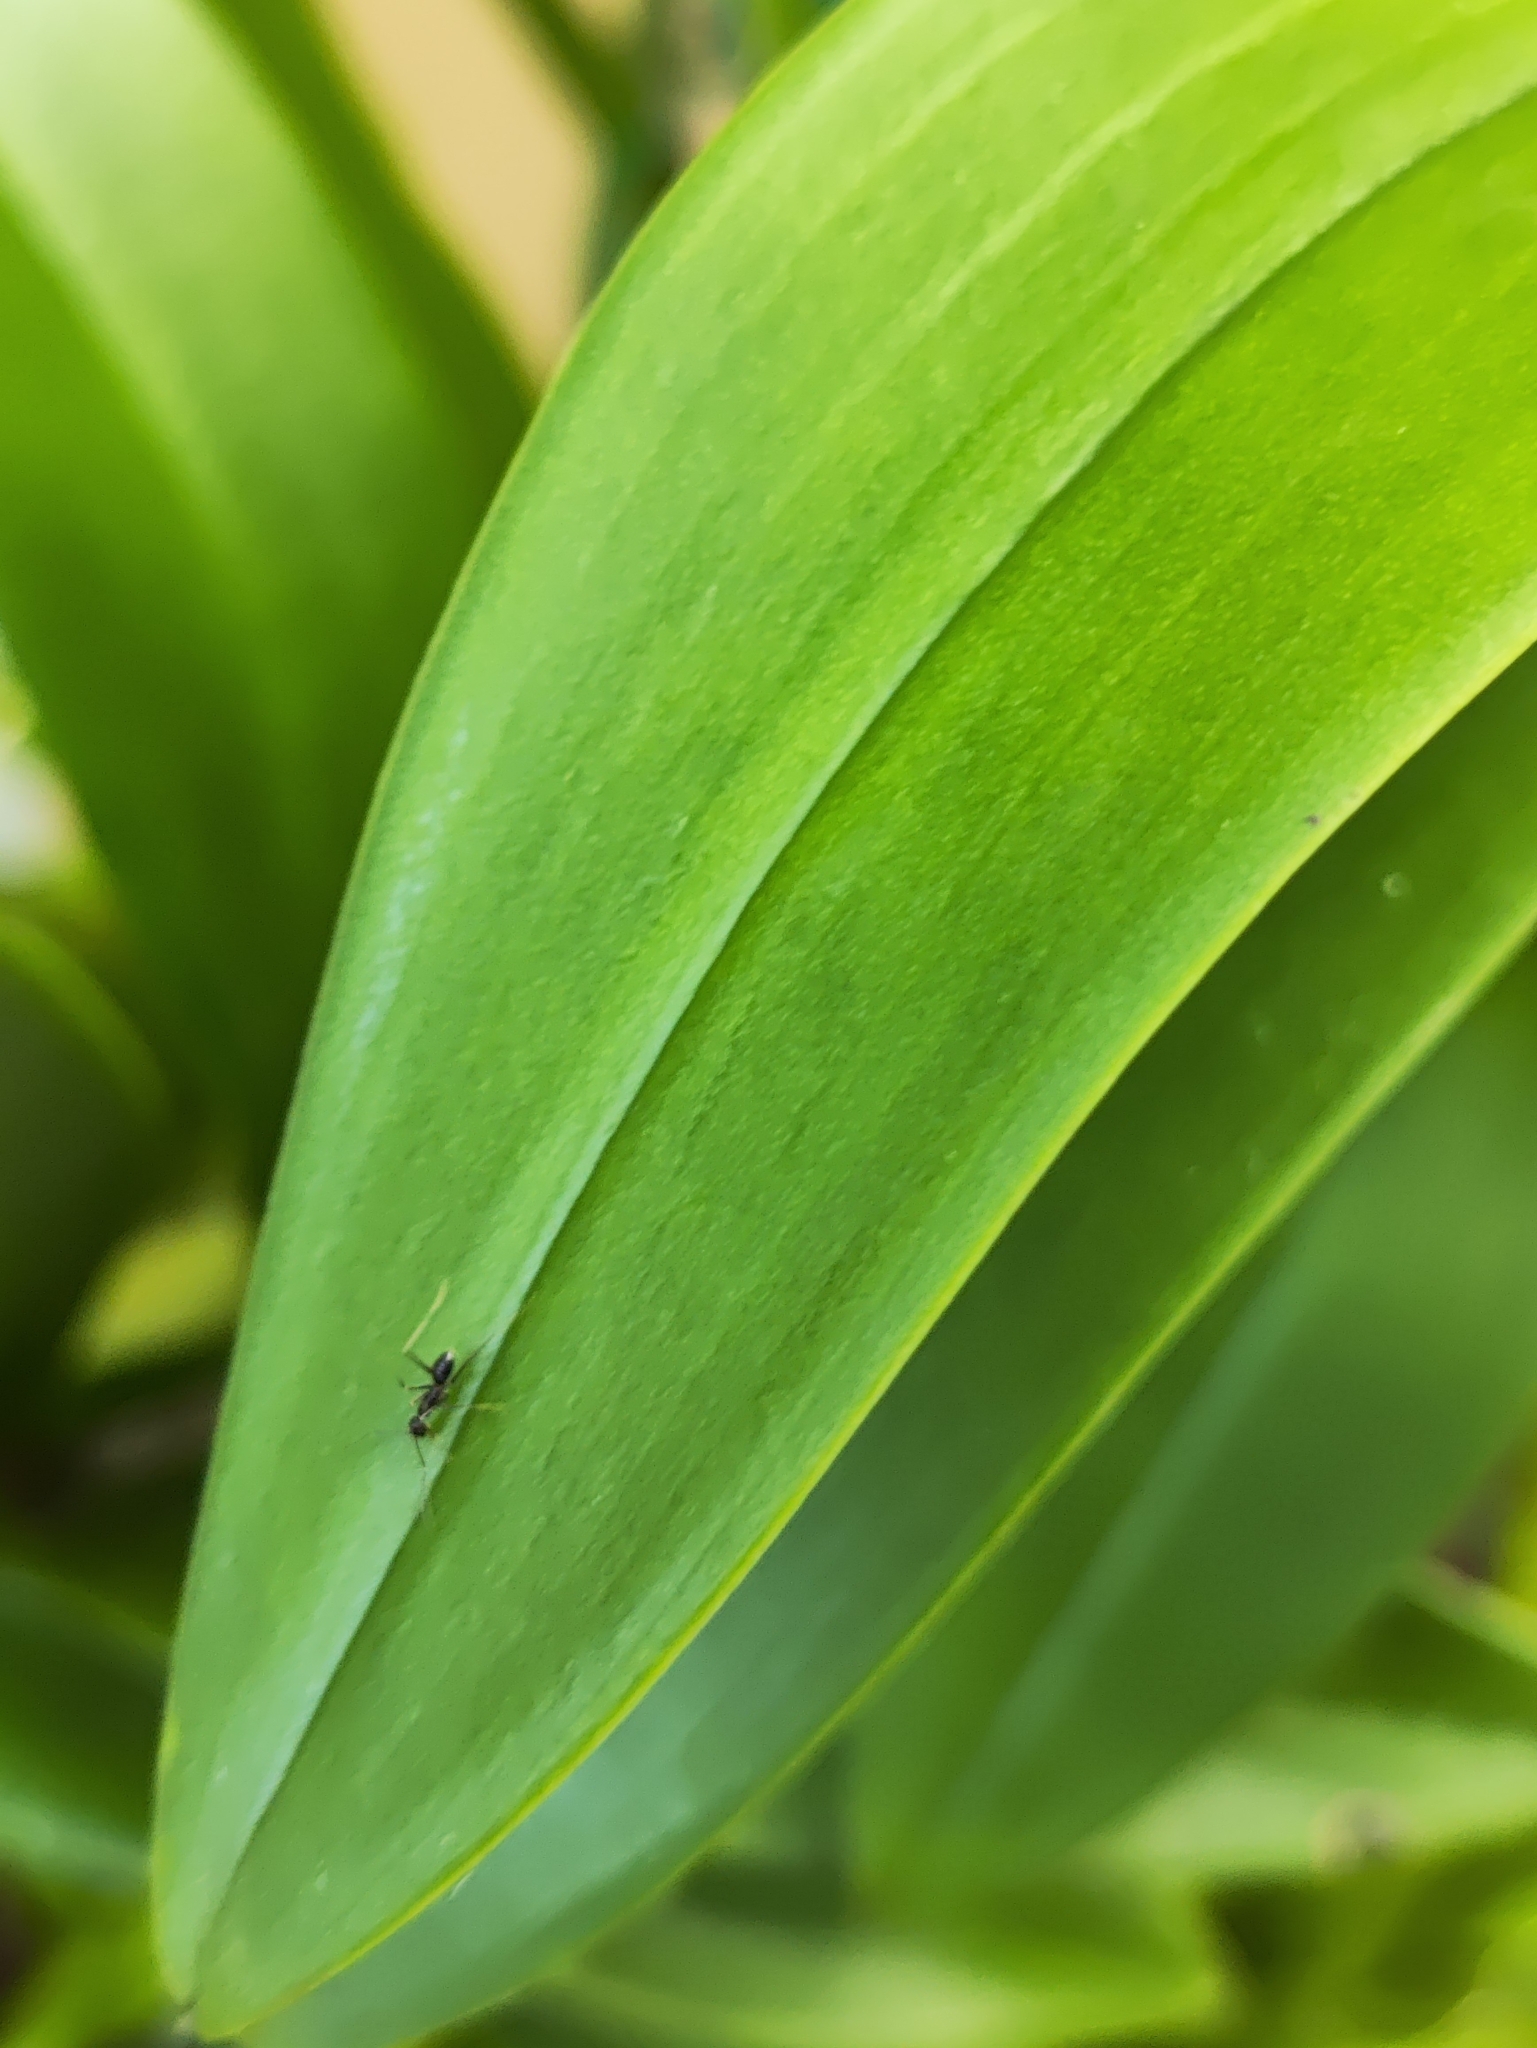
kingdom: Animalia
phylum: Arthropoda
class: Insecta
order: Hymenoptera
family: Formicidae
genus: Paratrechina
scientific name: Paratrechina longicornis
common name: Longhorned crazy ant
